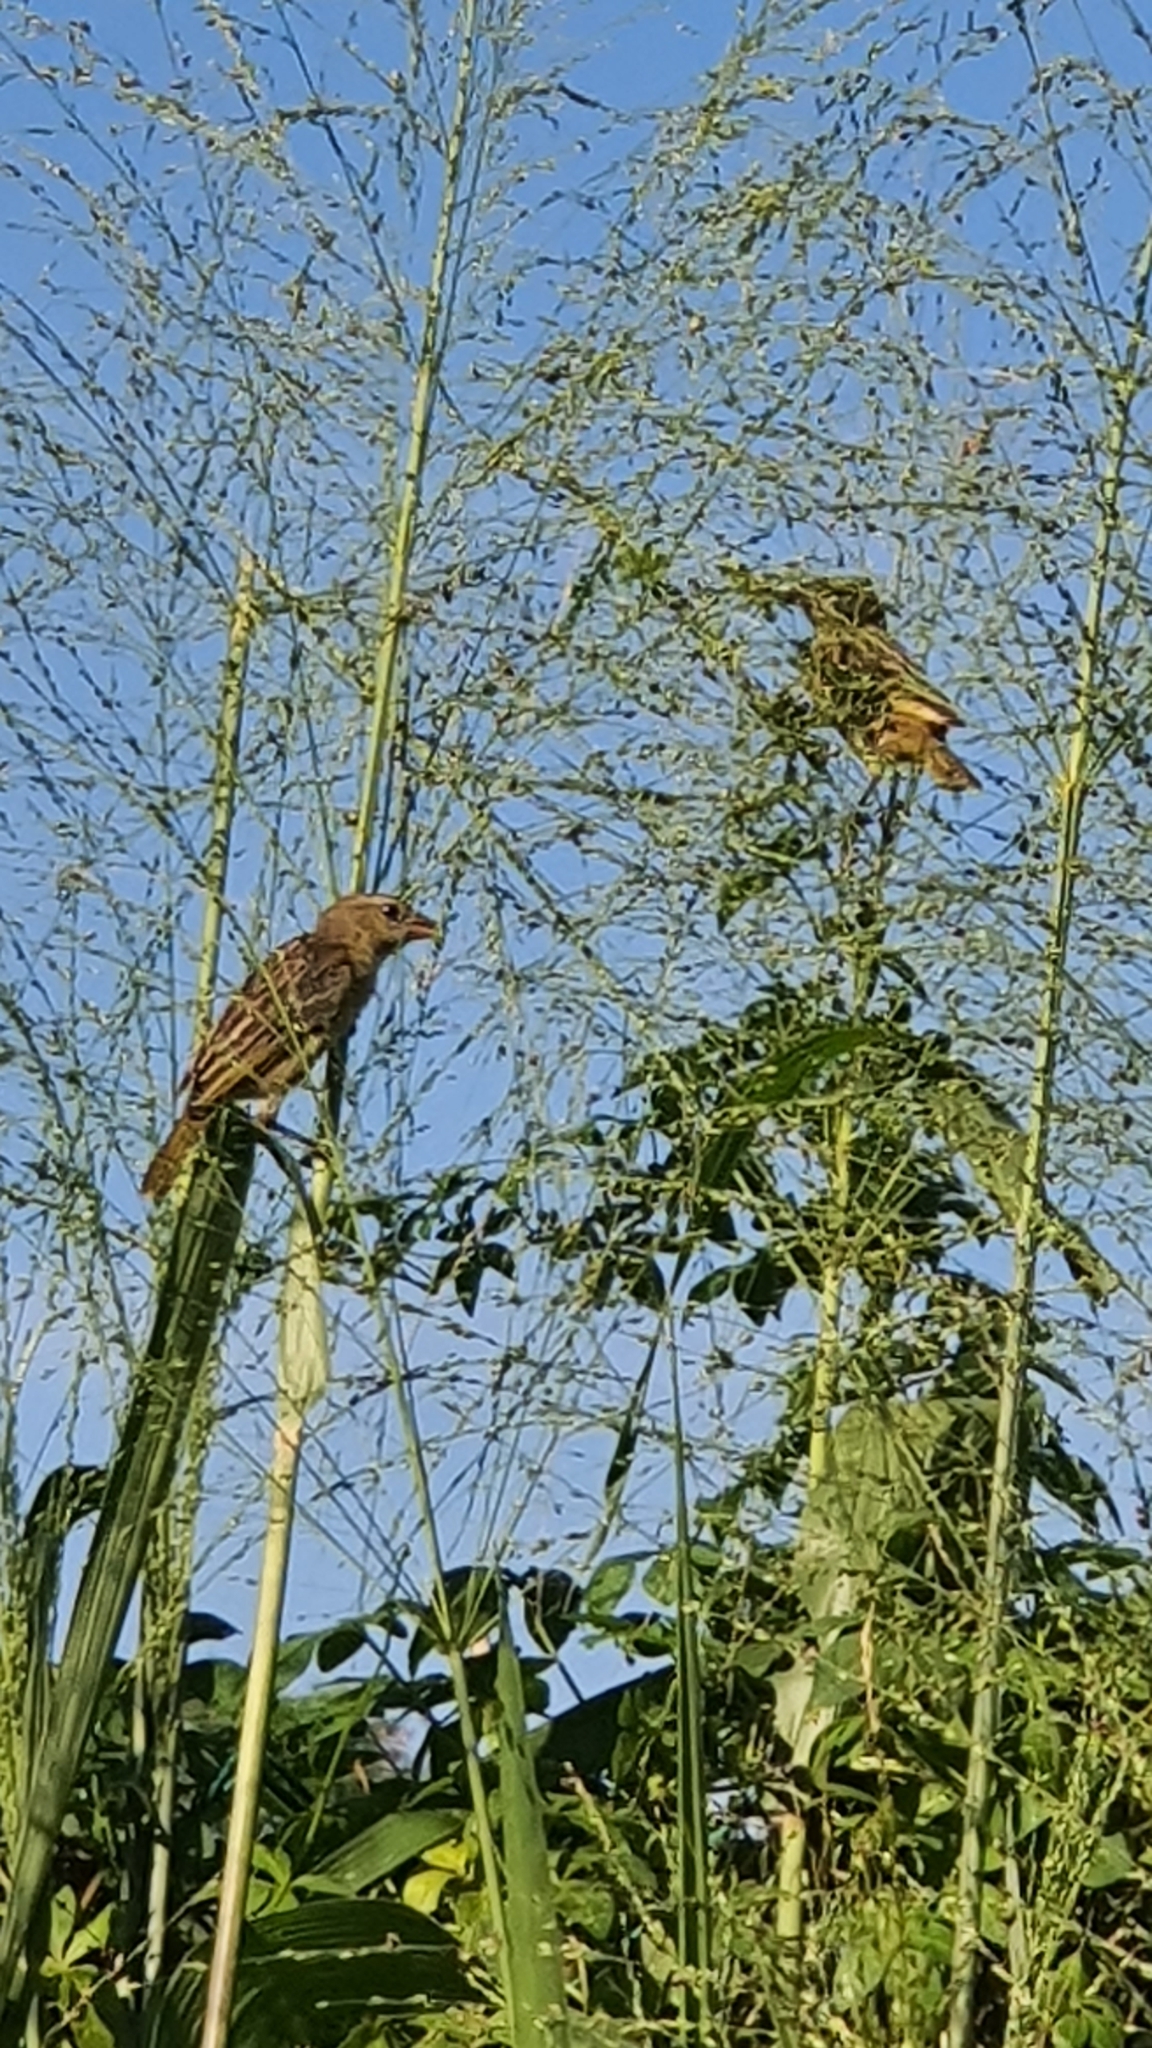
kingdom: Animalia
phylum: Chordata
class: Aves
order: Passeriformes
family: Ploceidae
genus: Ploceus
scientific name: Ploceus philippinus
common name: Baya weaver
